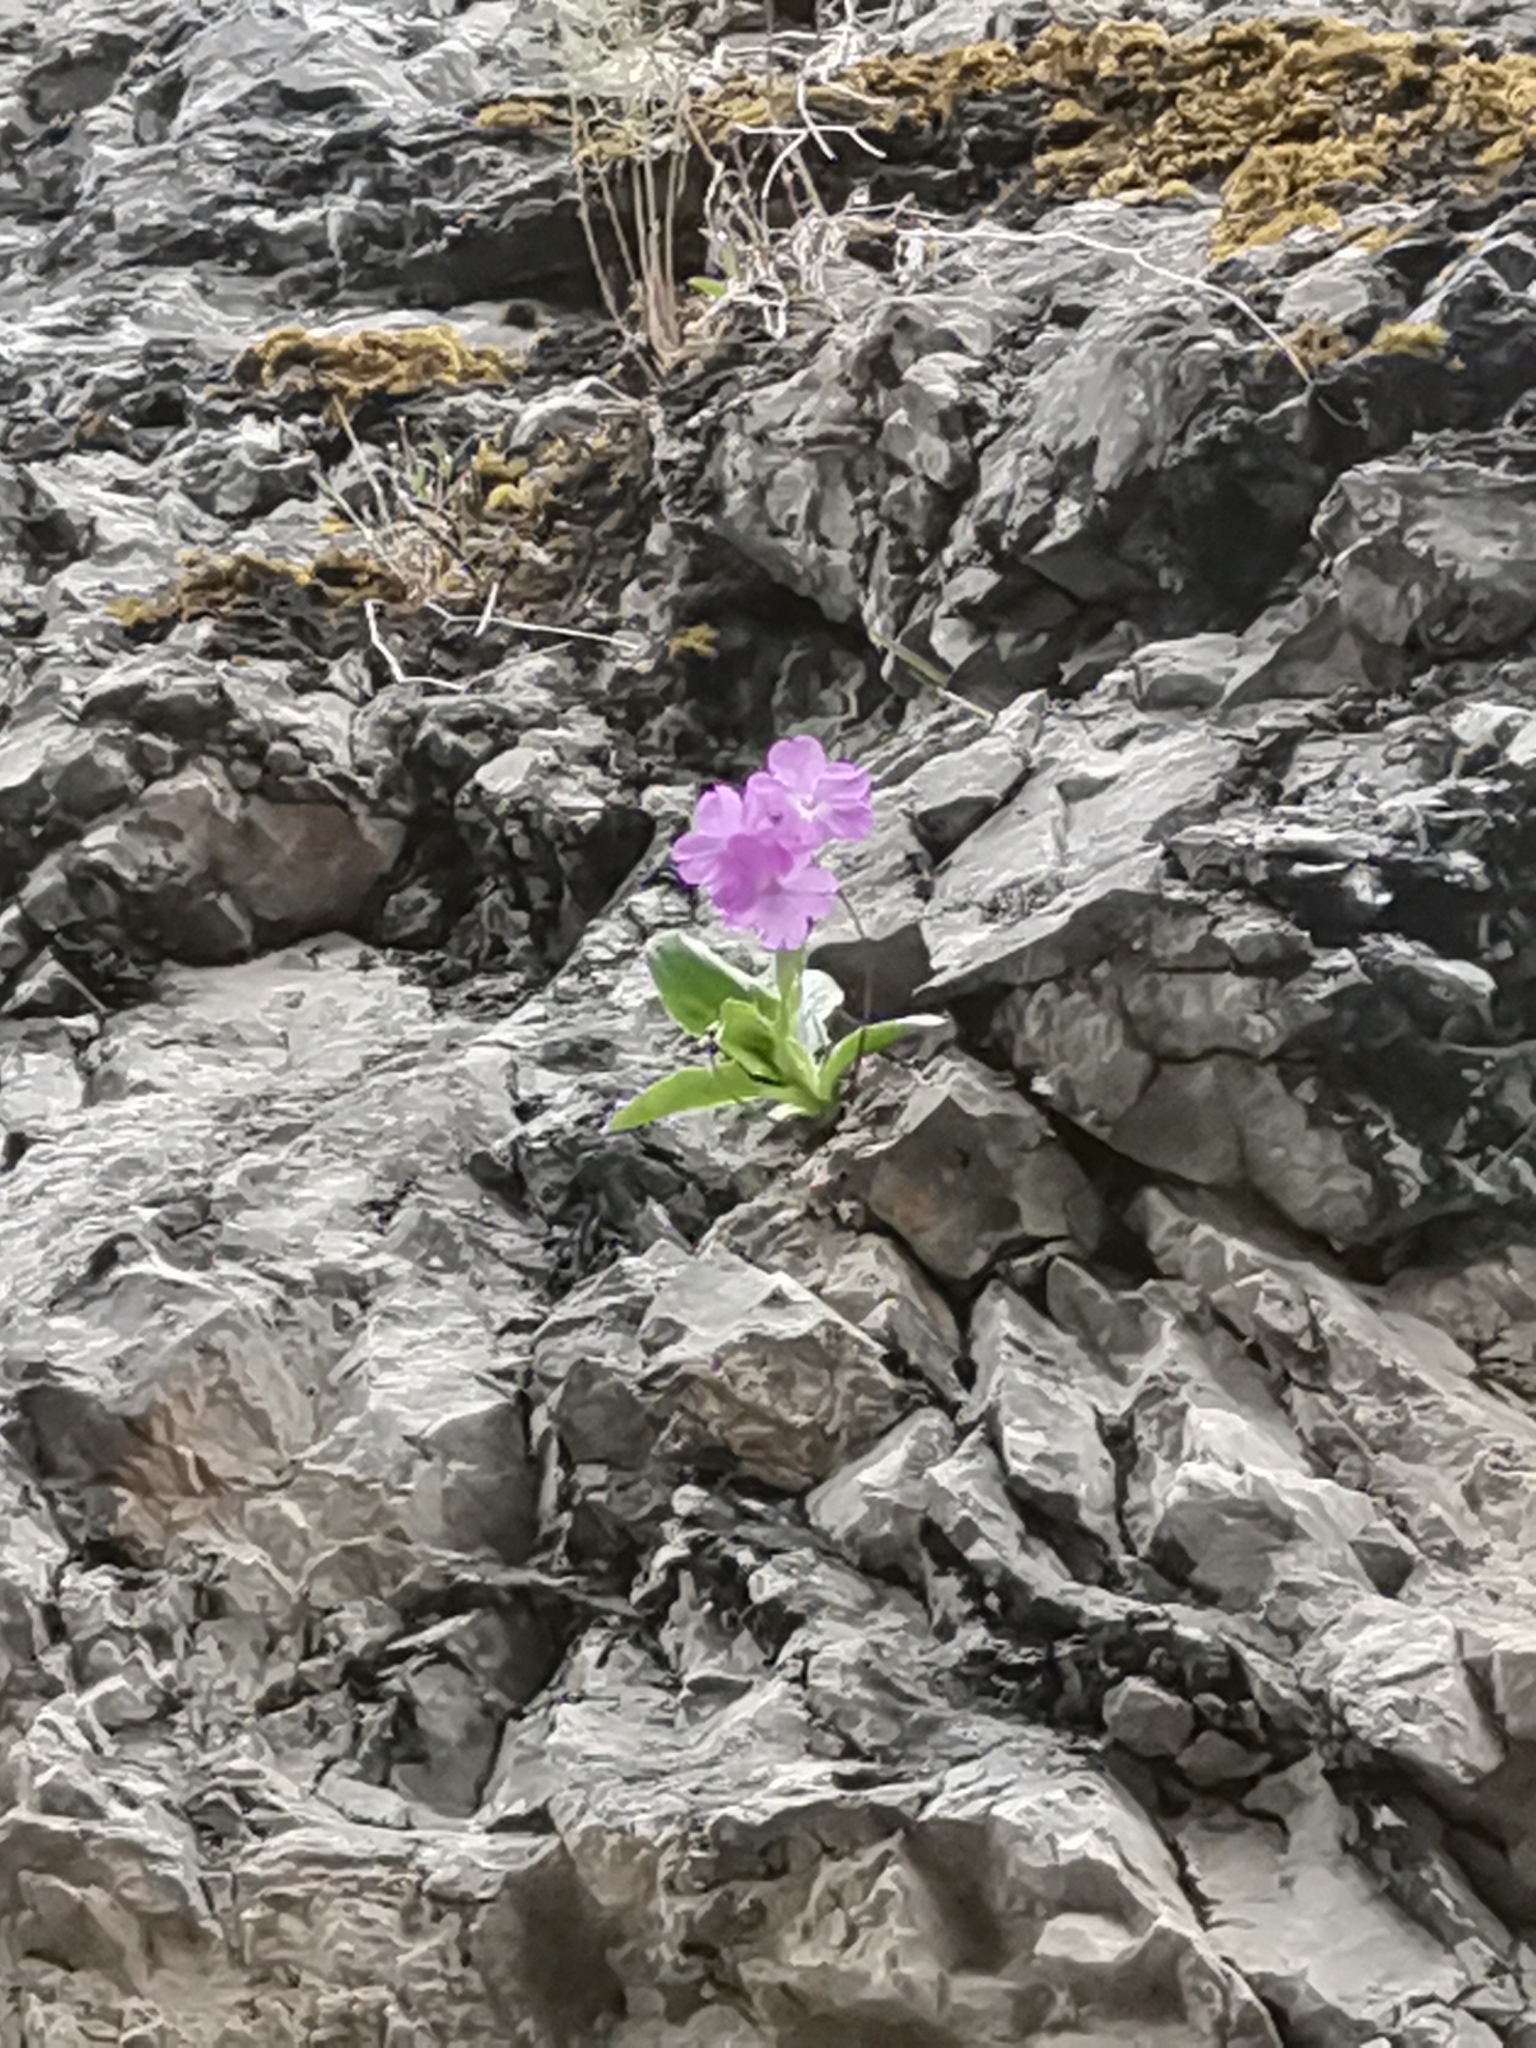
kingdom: Plantae
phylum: Tracheophyta
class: Magnoliopsida
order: Ericales
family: Primulaceae
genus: Primula
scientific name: Primula carniolica
